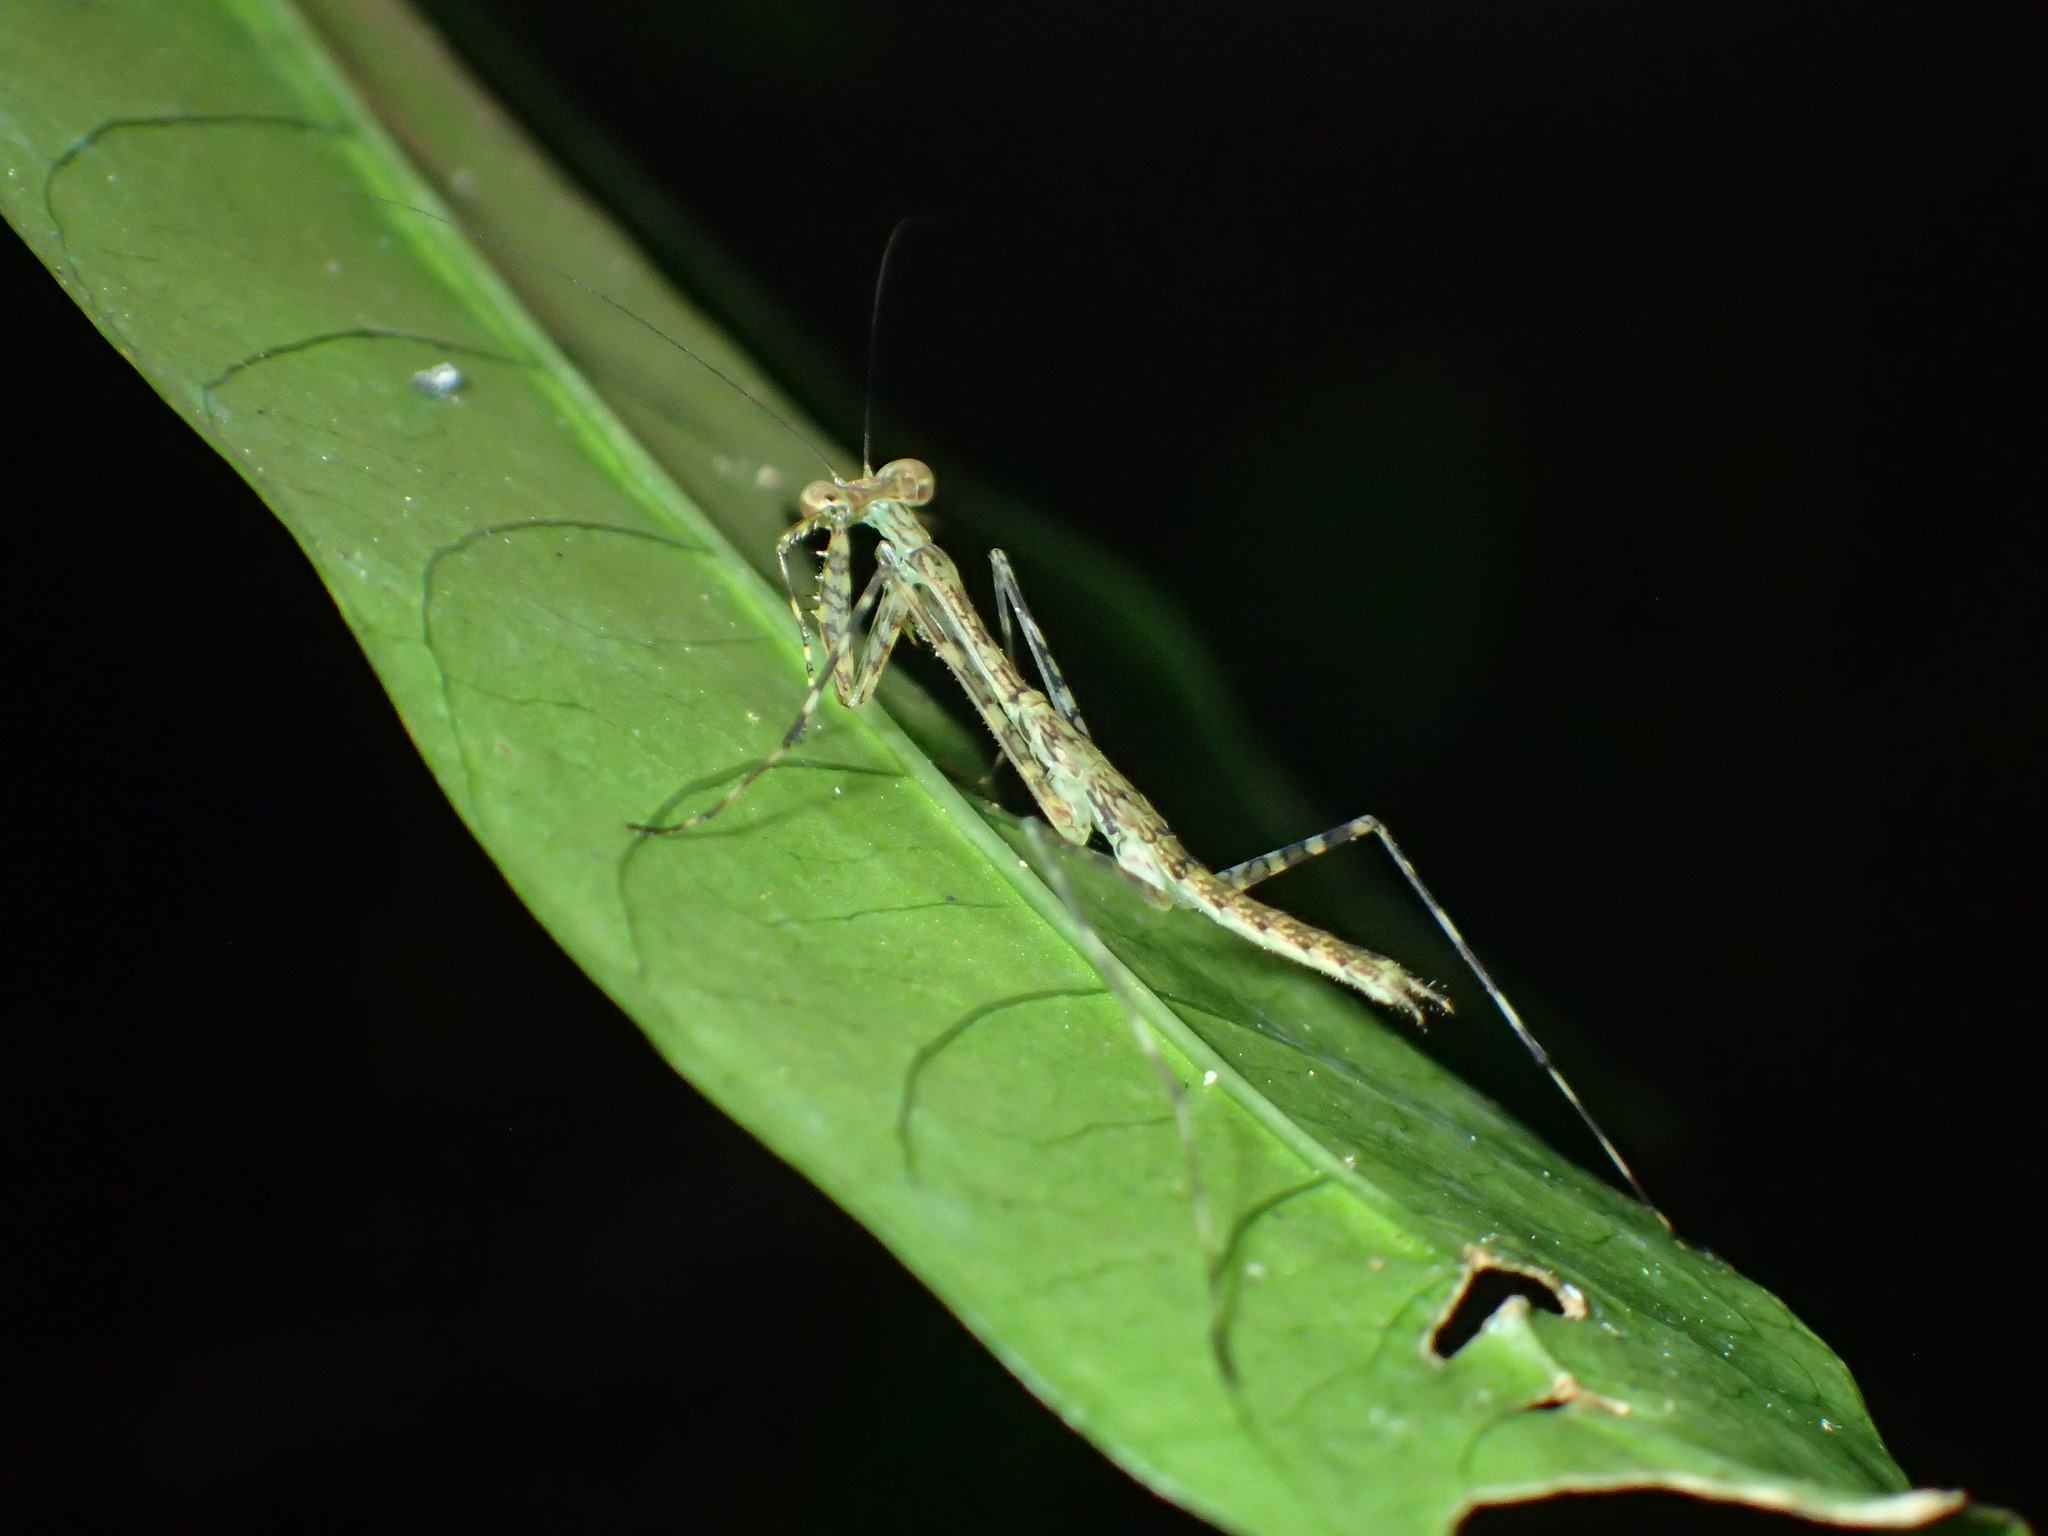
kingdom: Animalia
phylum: Arthropoda
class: Insecta
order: Mantodea
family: Nanomantidae
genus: Ciulfina
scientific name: Ciulfina rentzi
